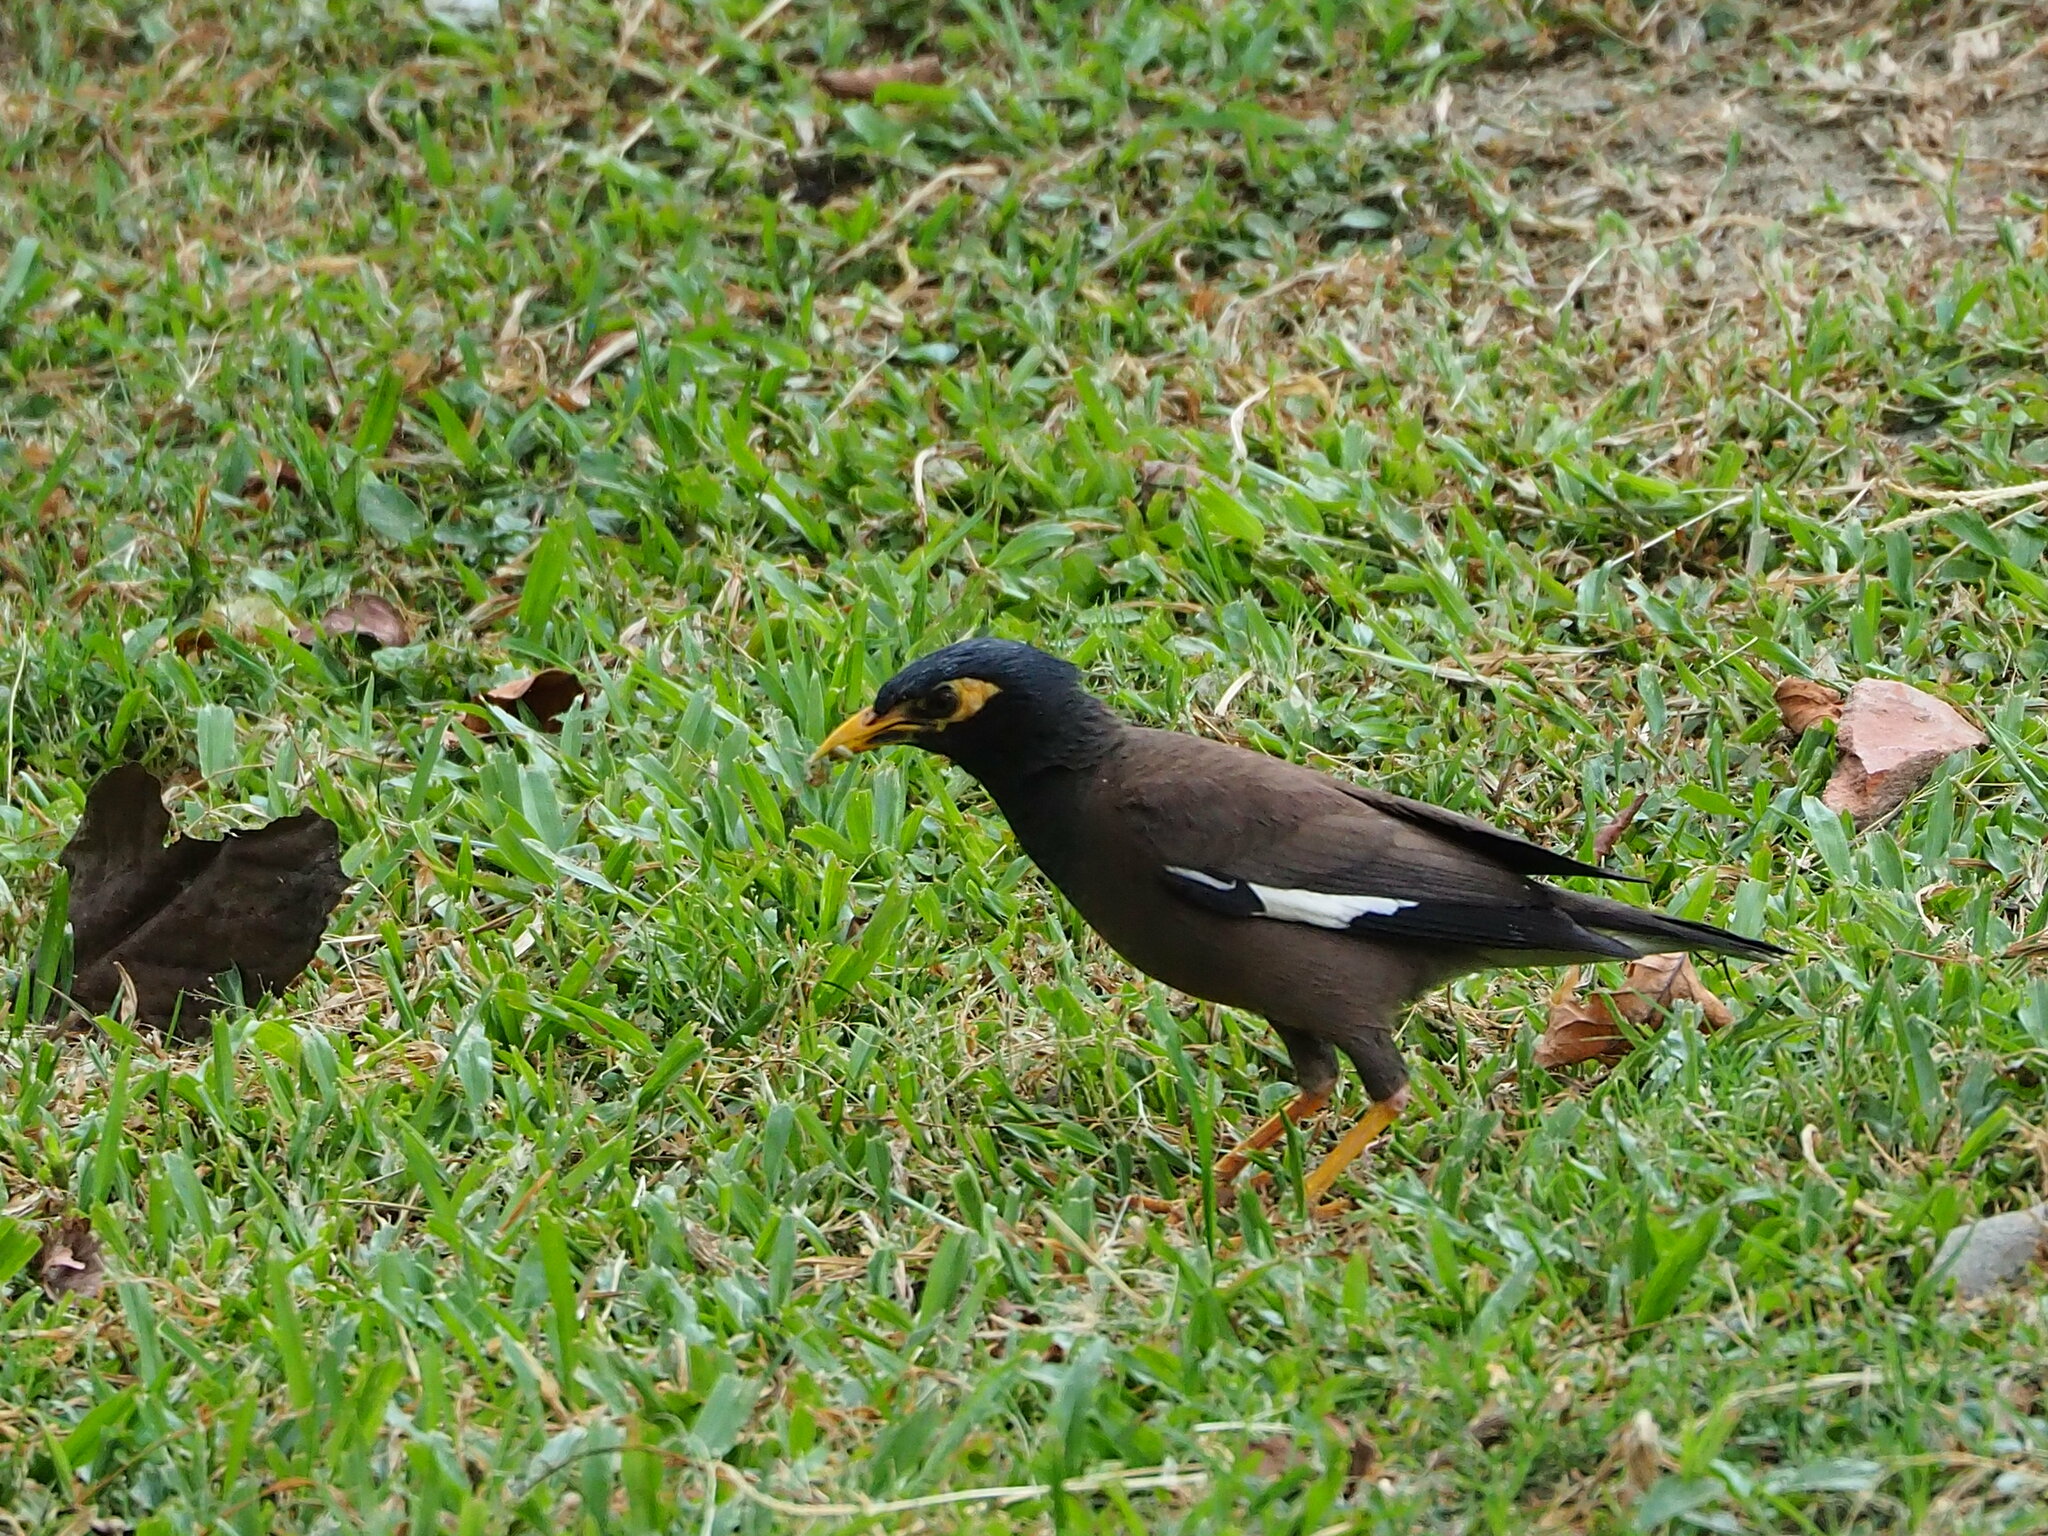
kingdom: Animalia
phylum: Chordata
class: Aves
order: Passeriformes
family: Sturnidae
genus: Acridotheres
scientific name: Acridotheres tristis
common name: Common myna
